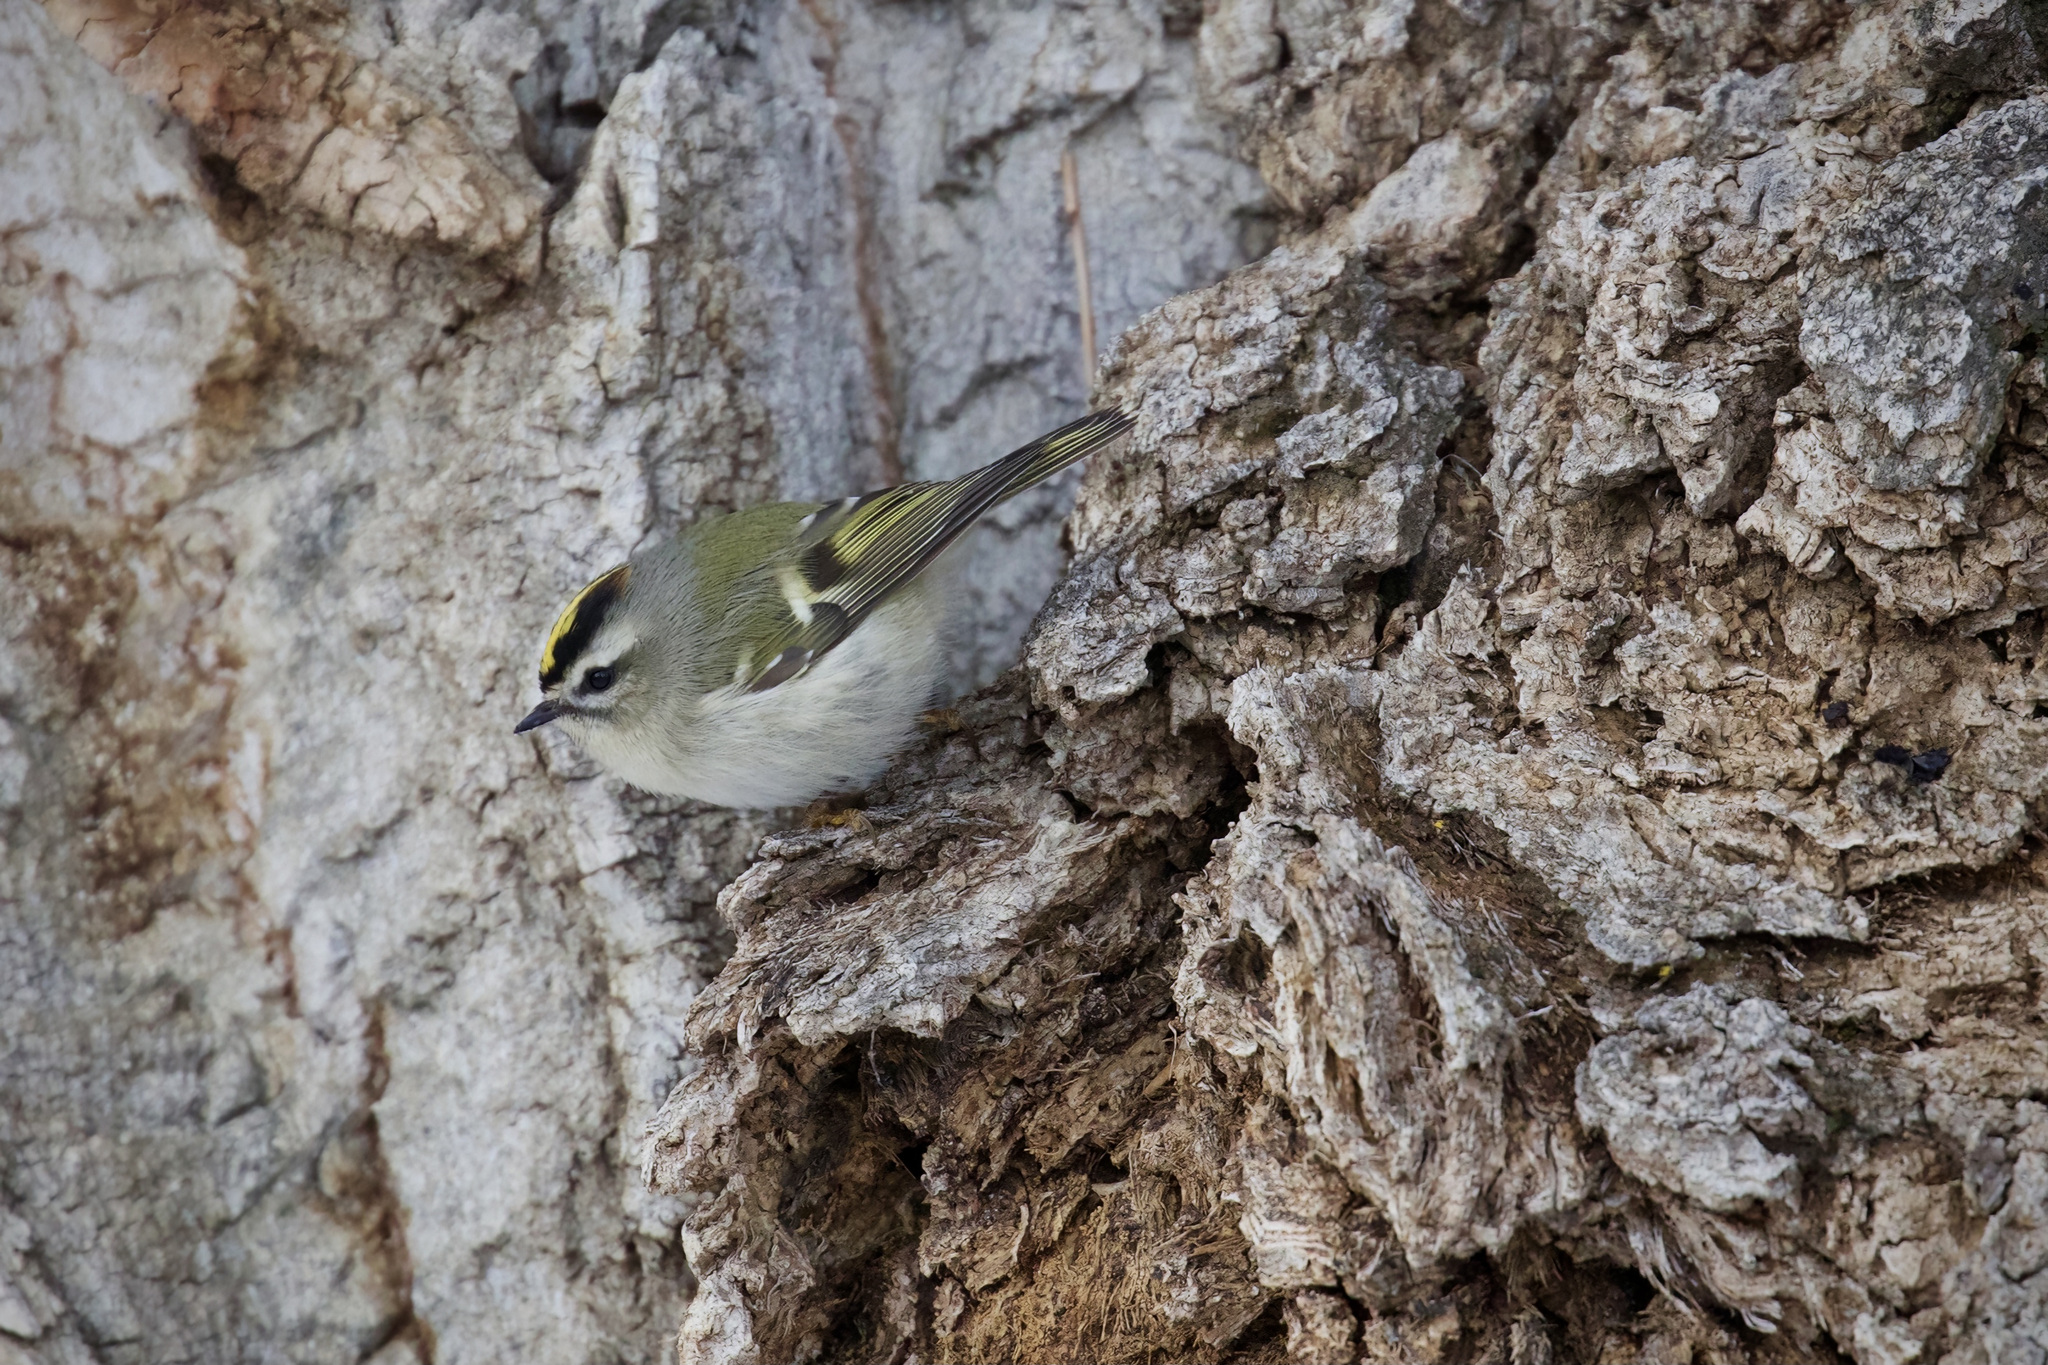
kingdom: Animalia
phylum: Chordata
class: Aves
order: Passeriformes
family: Regulidae
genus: Regulus
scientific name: Regulus satrapa
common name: Golden-crowned kinglet
